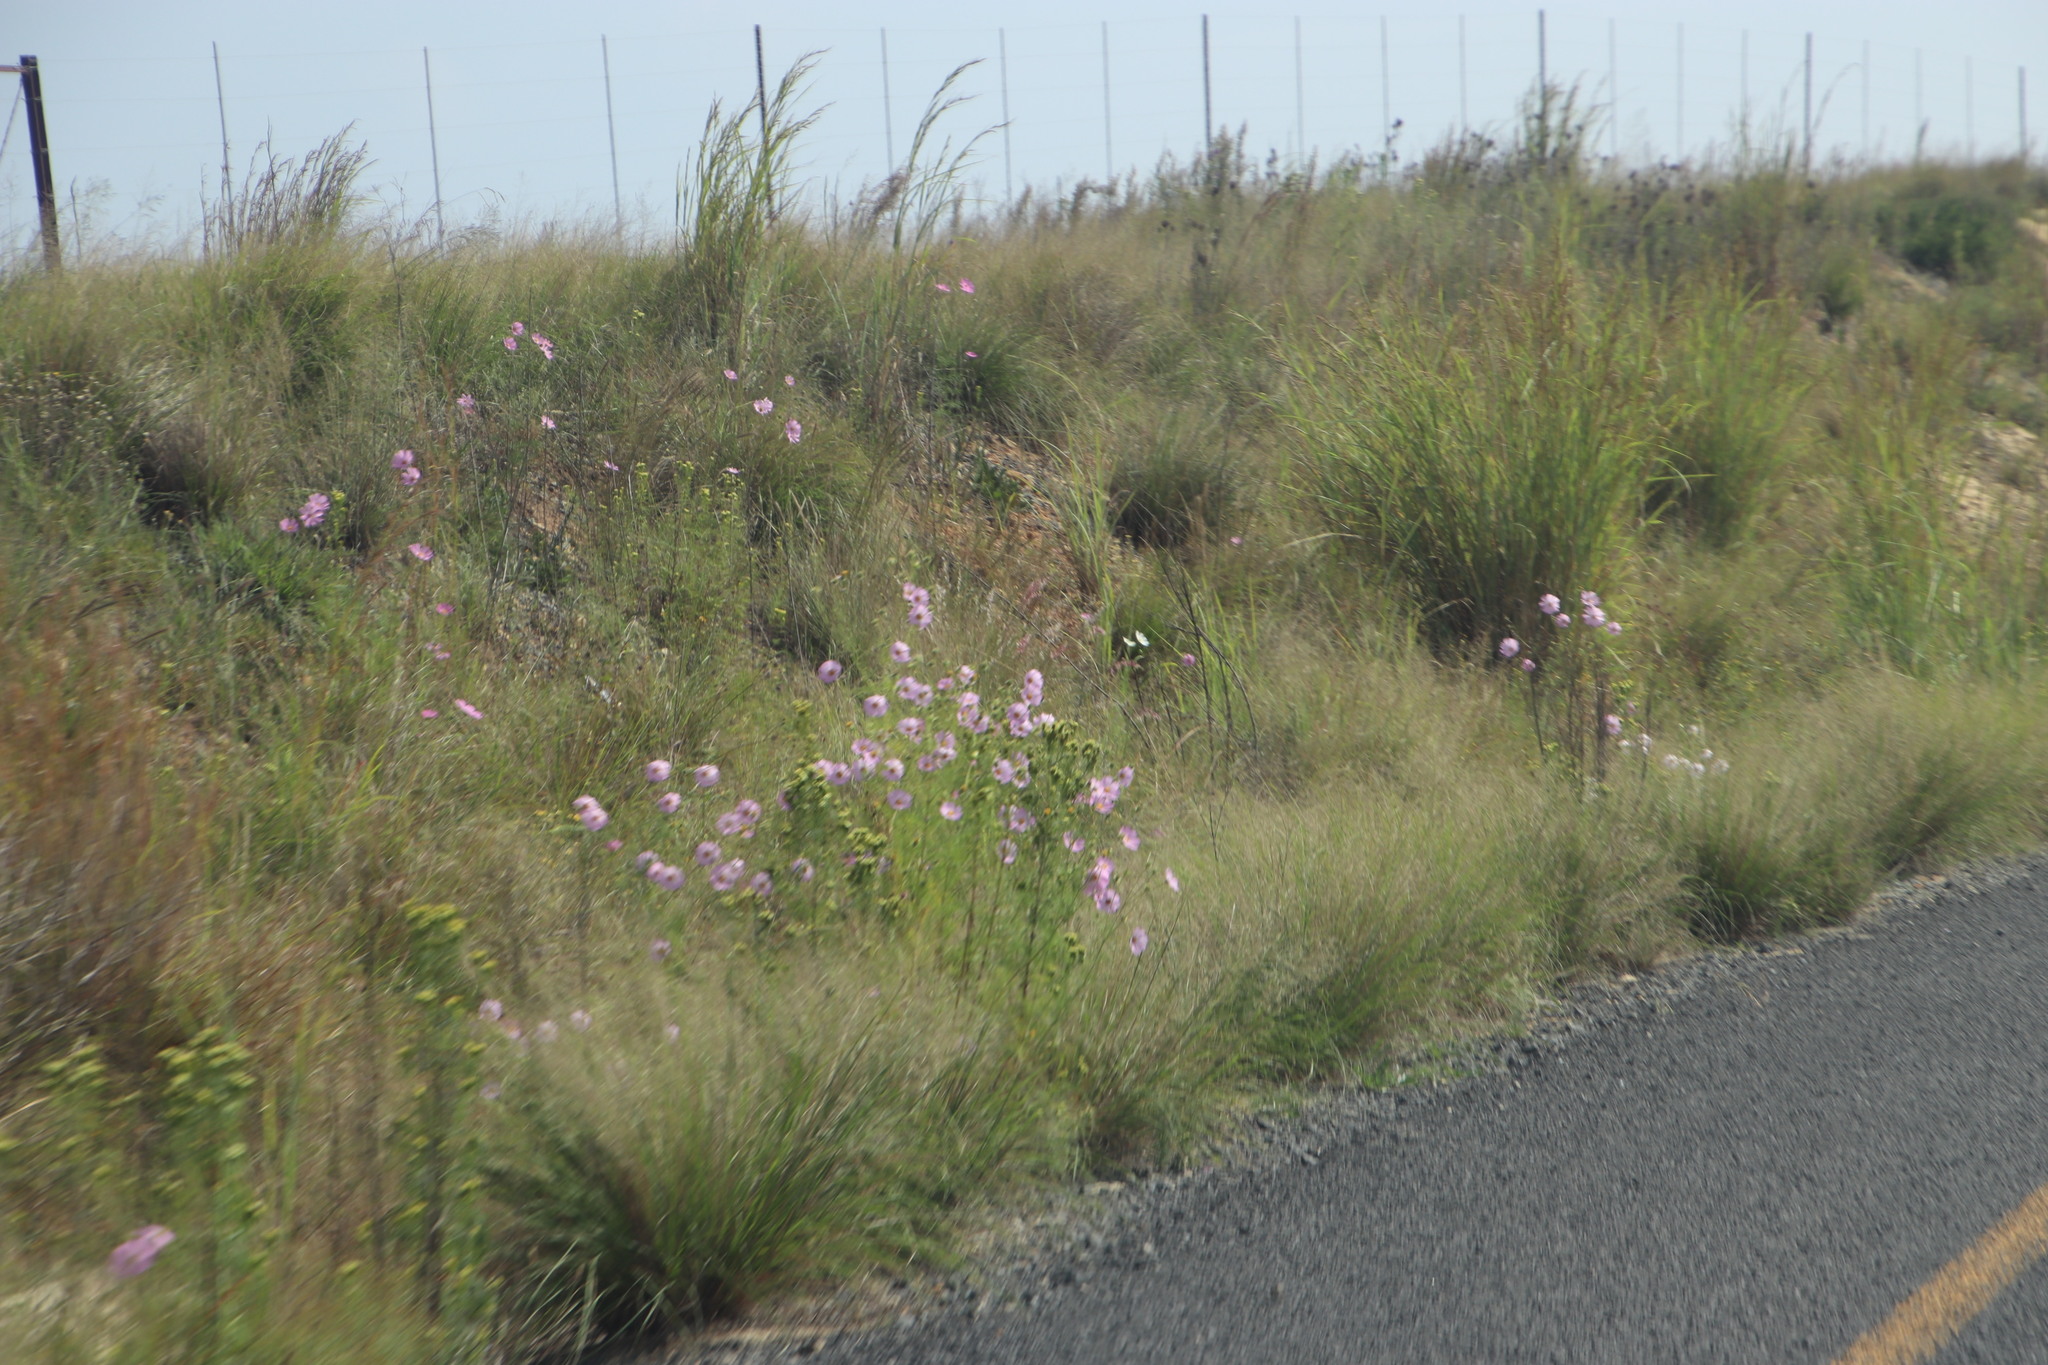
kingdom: Plantae
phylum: Tracheophyta
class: Magnoliopsida
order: Asterales
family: Asteraceae
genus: Cosmos
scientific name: Cosmos bipinnatus
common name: Garden cosmos
